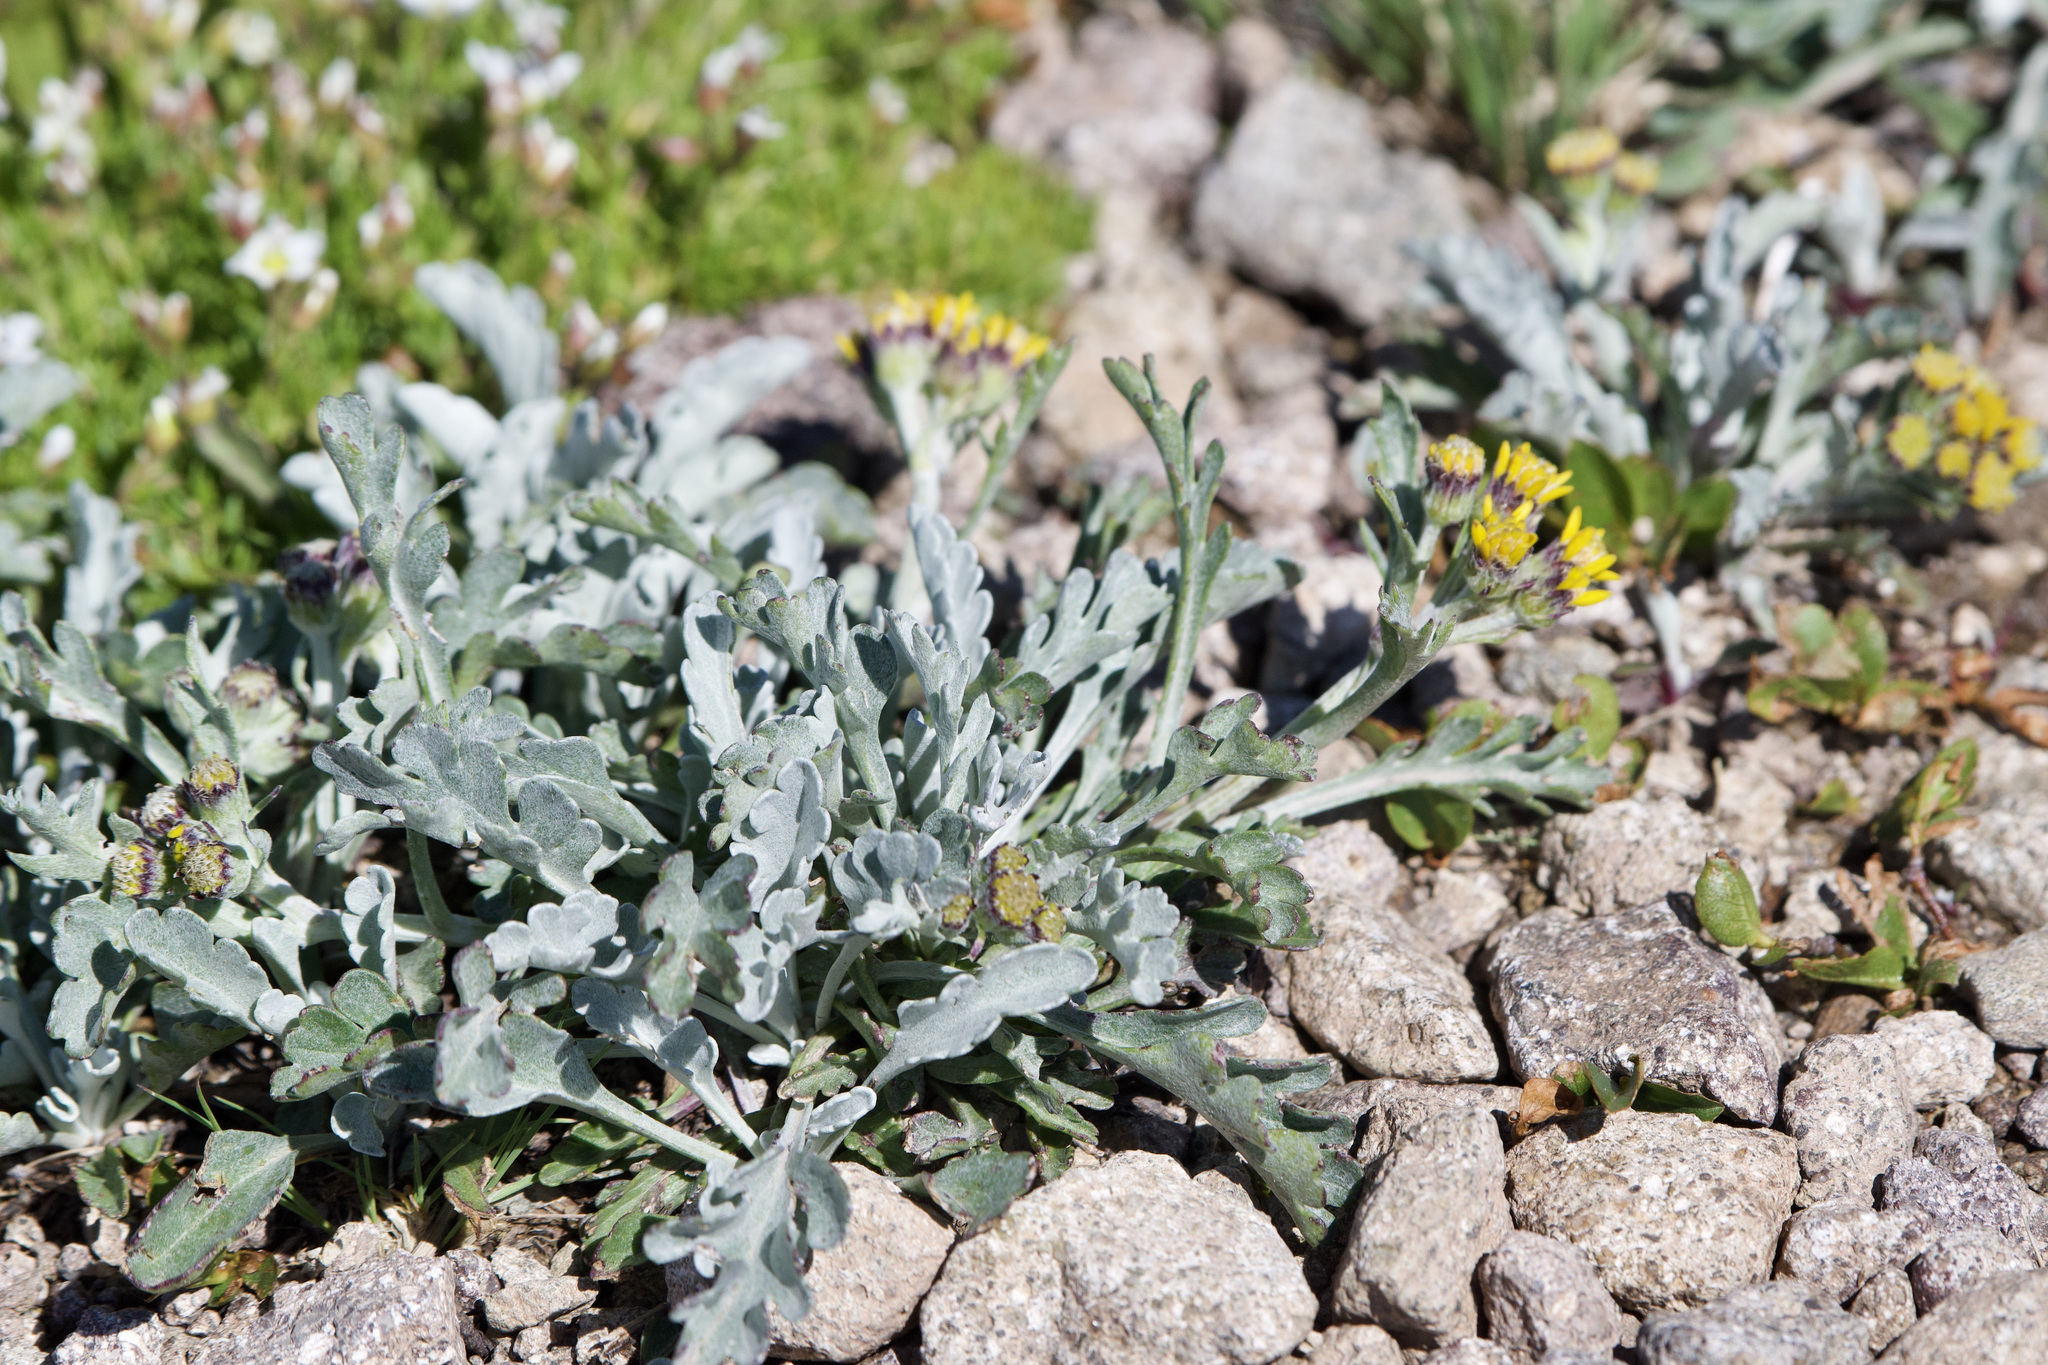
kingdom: Plantae
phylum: Tracheophyta
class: Magnoliopsida
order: Asterales
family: Asteraceae
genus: Jacobaea
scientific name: Jacobaea insubrica
